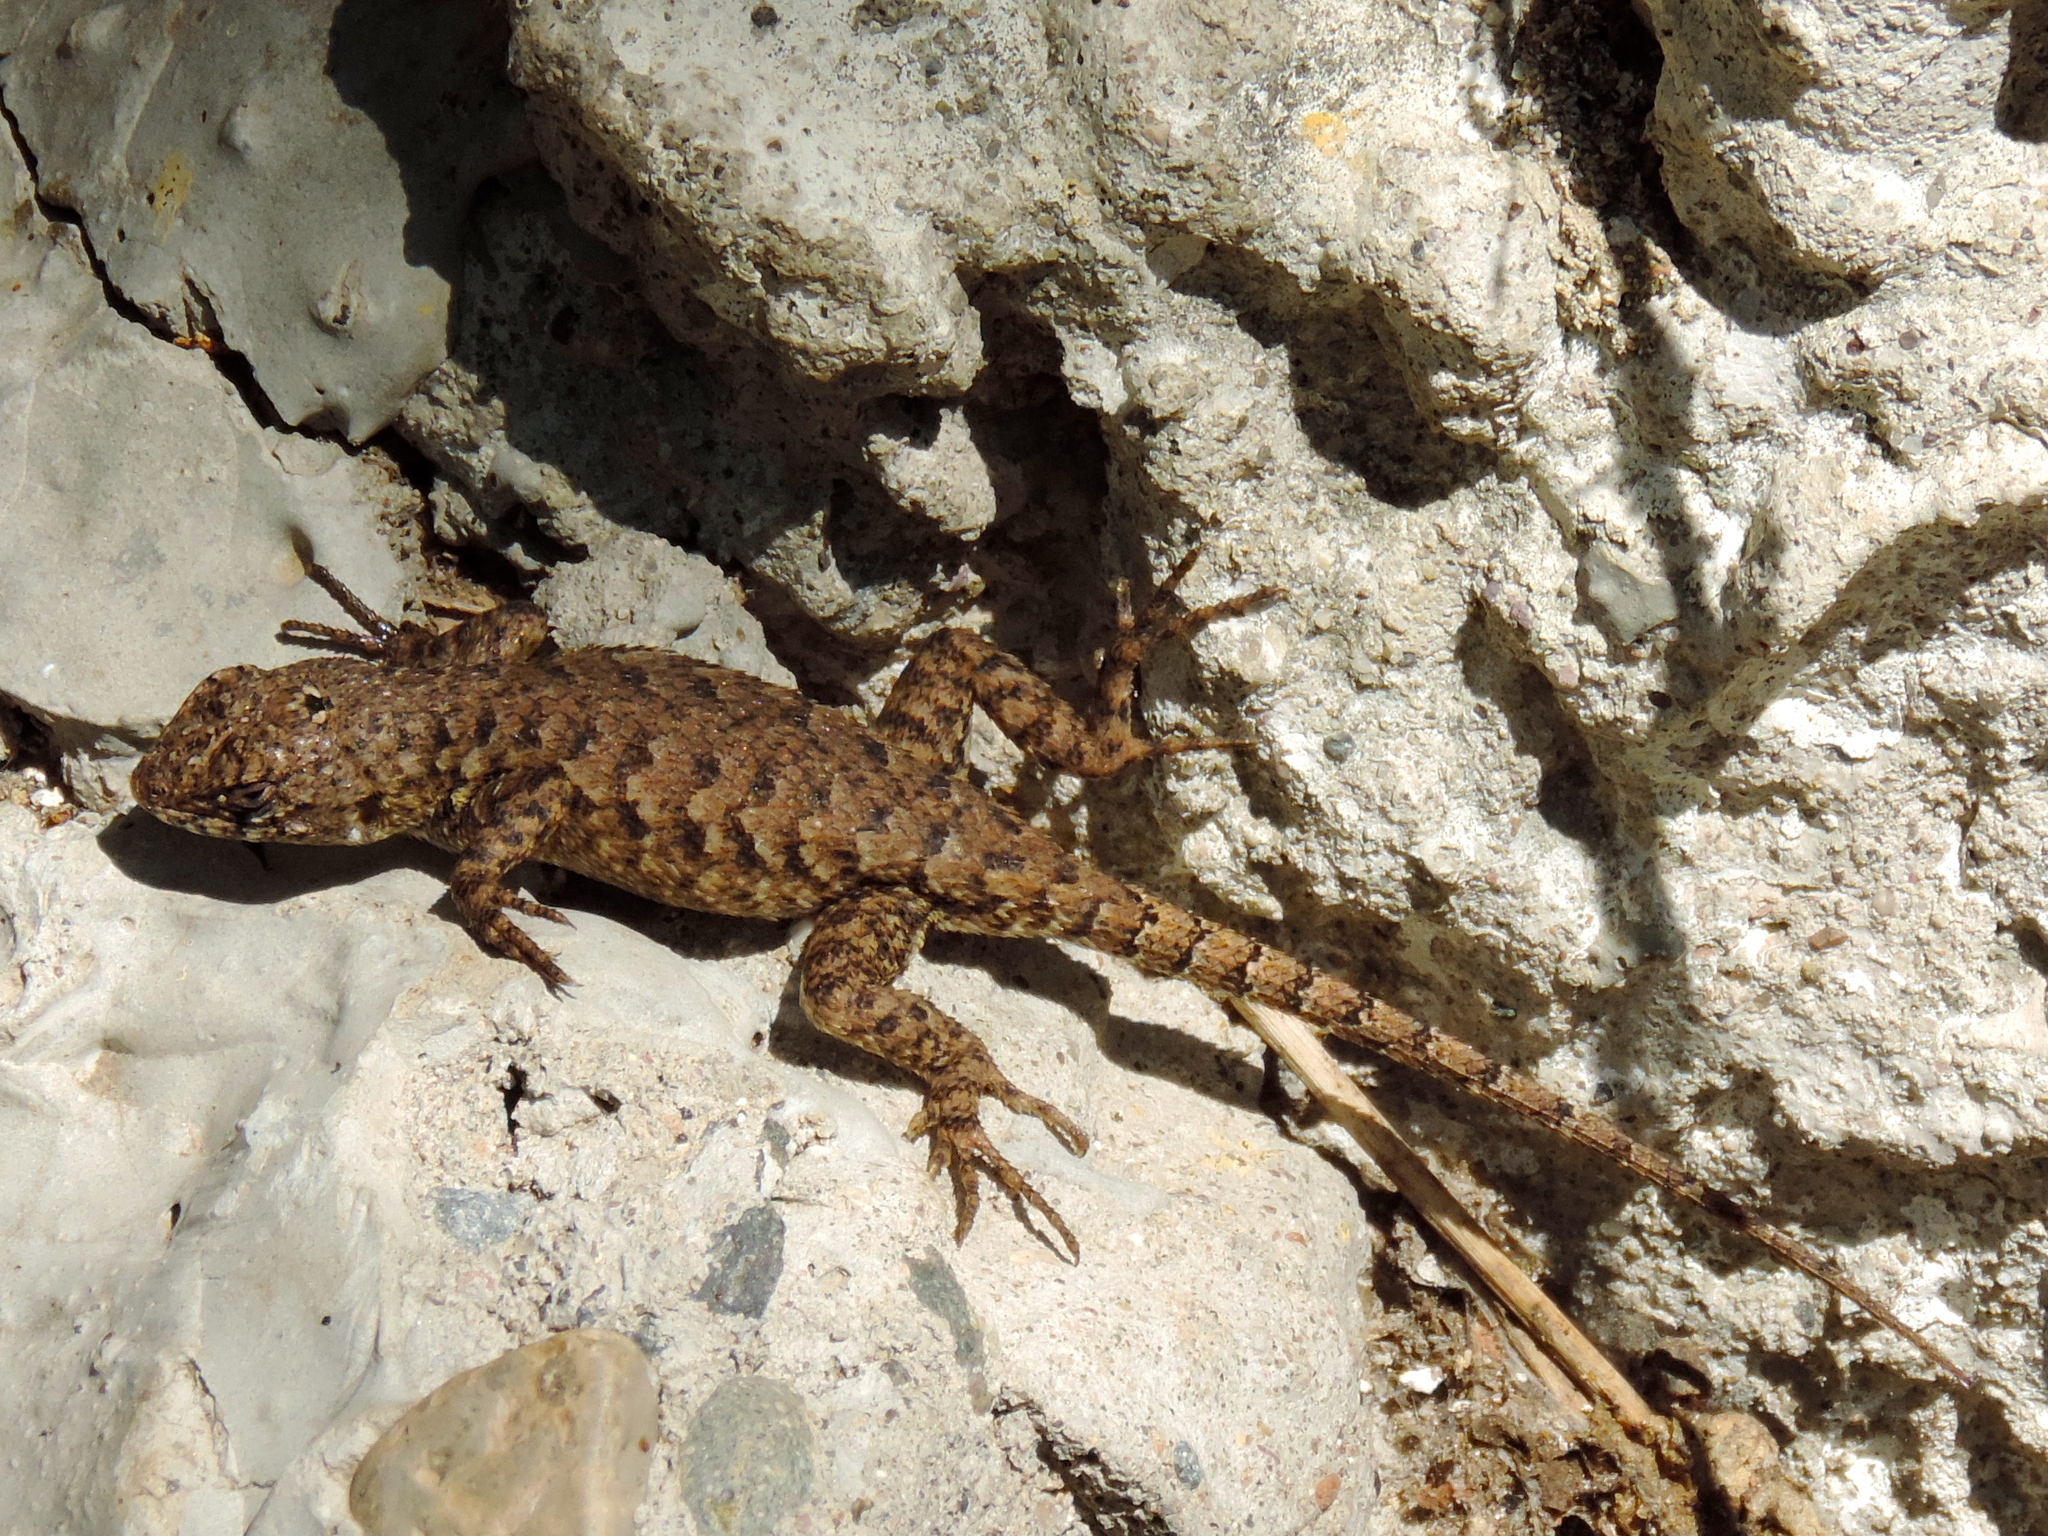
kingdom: Animalia
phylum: Chordata
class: Squamata
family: Phrynosomatidae
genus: Sceloporus
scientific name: Sceloporus nelsoni
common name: Nelson's spiny lizard
